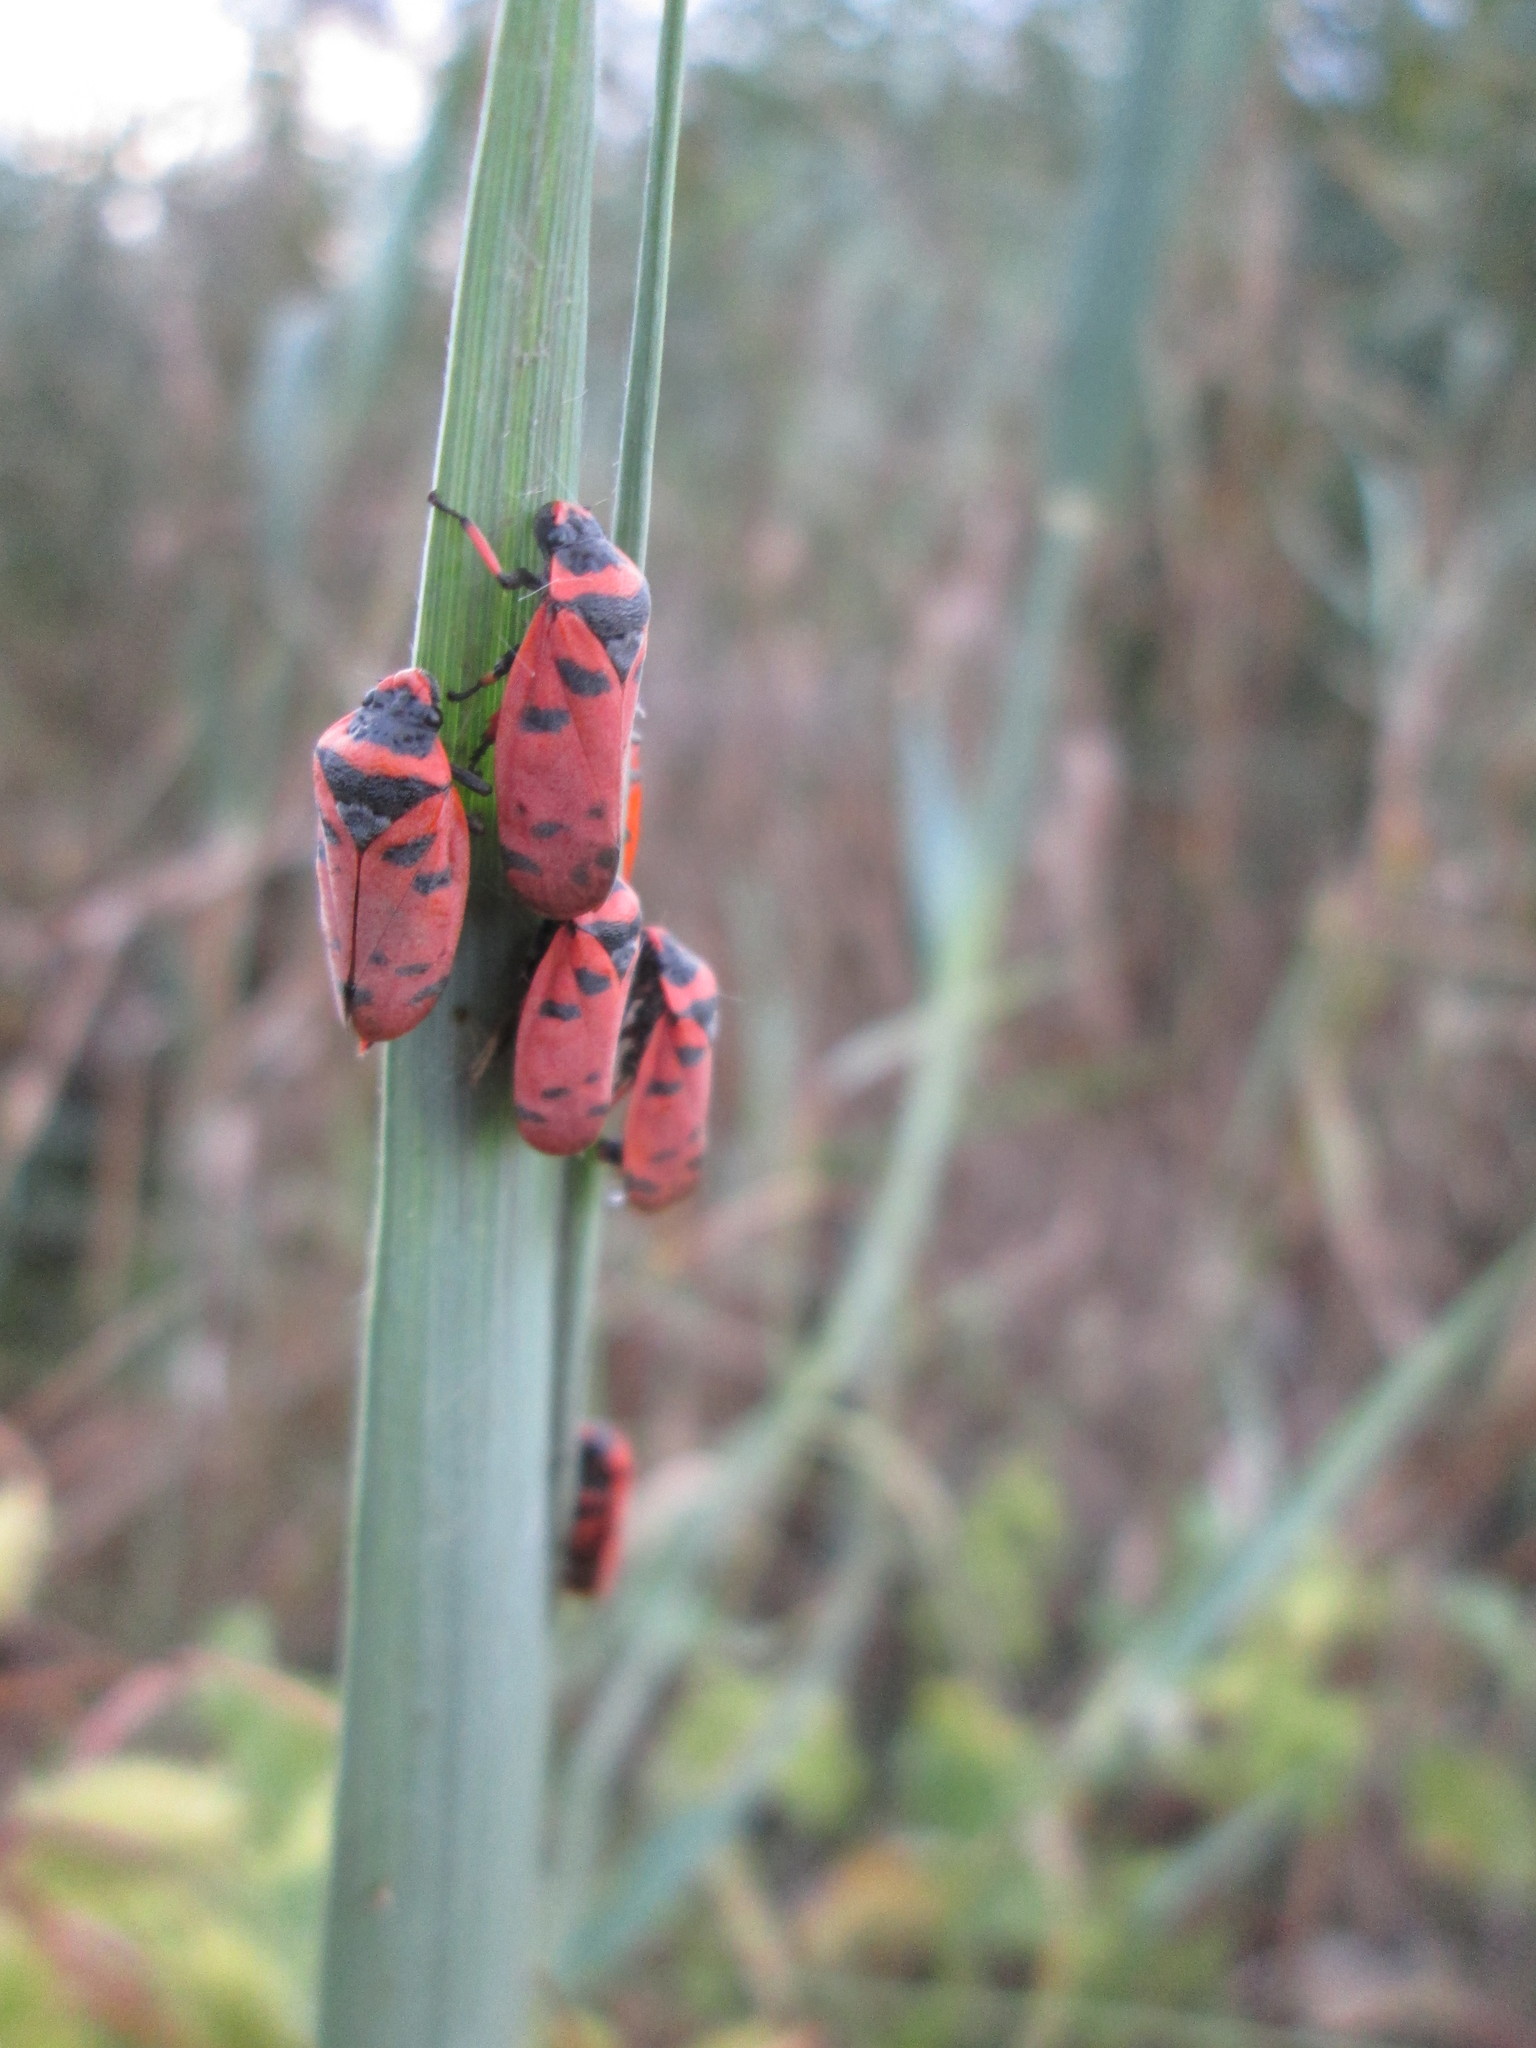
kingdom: Animalia
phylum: Arthropoda
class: Insecta
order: Hemiptera
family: Cercopidae
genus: Locris
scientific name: Locris arithmetica
